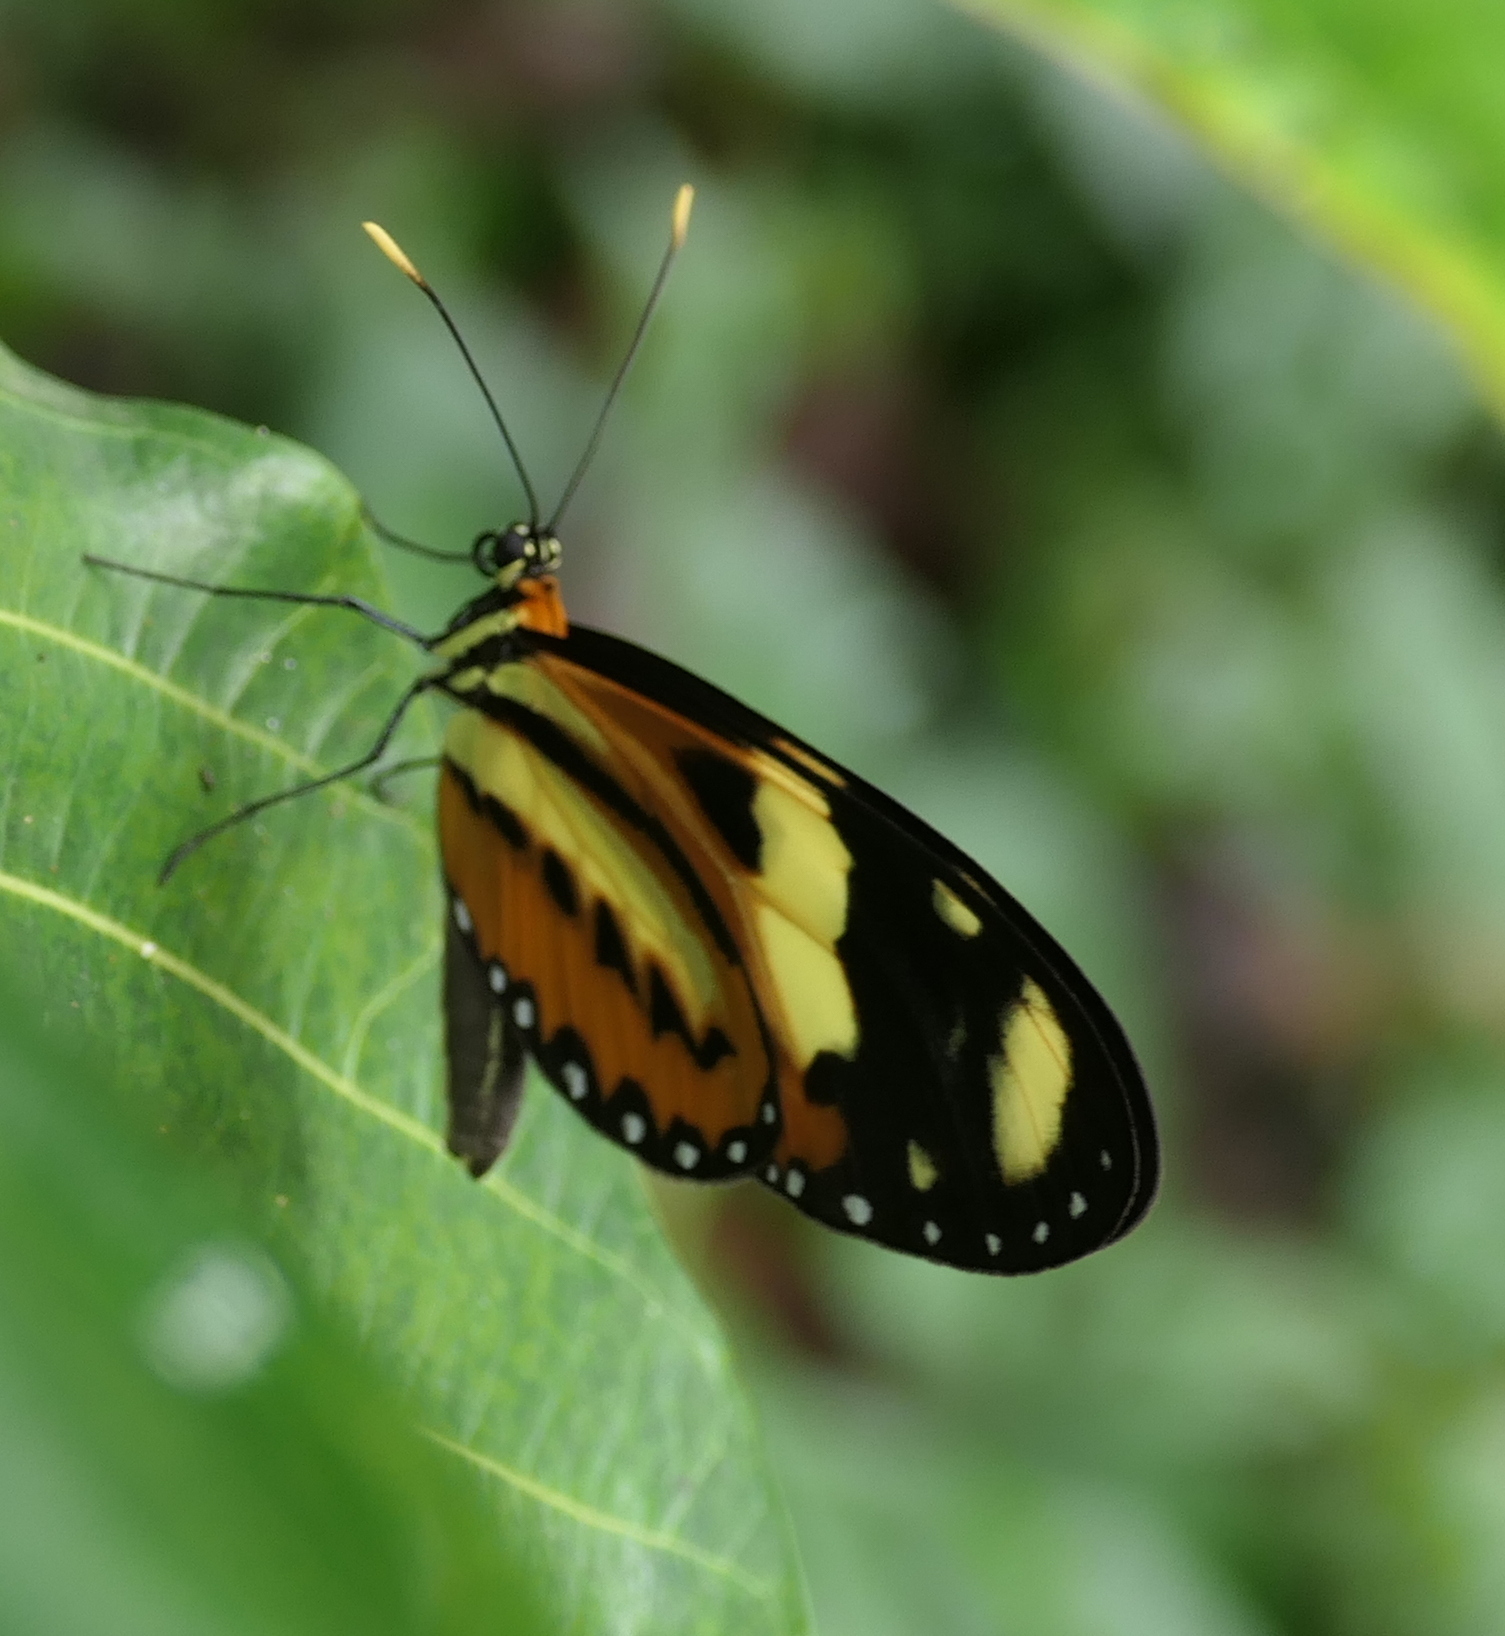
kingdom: Animalia
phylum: Arthropoda
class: Insecta
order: Lepidoptera
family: Nymphalidae
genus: Mechanitis
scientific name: Mechanitis lysimnia
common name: Lysimnia tigerwing
